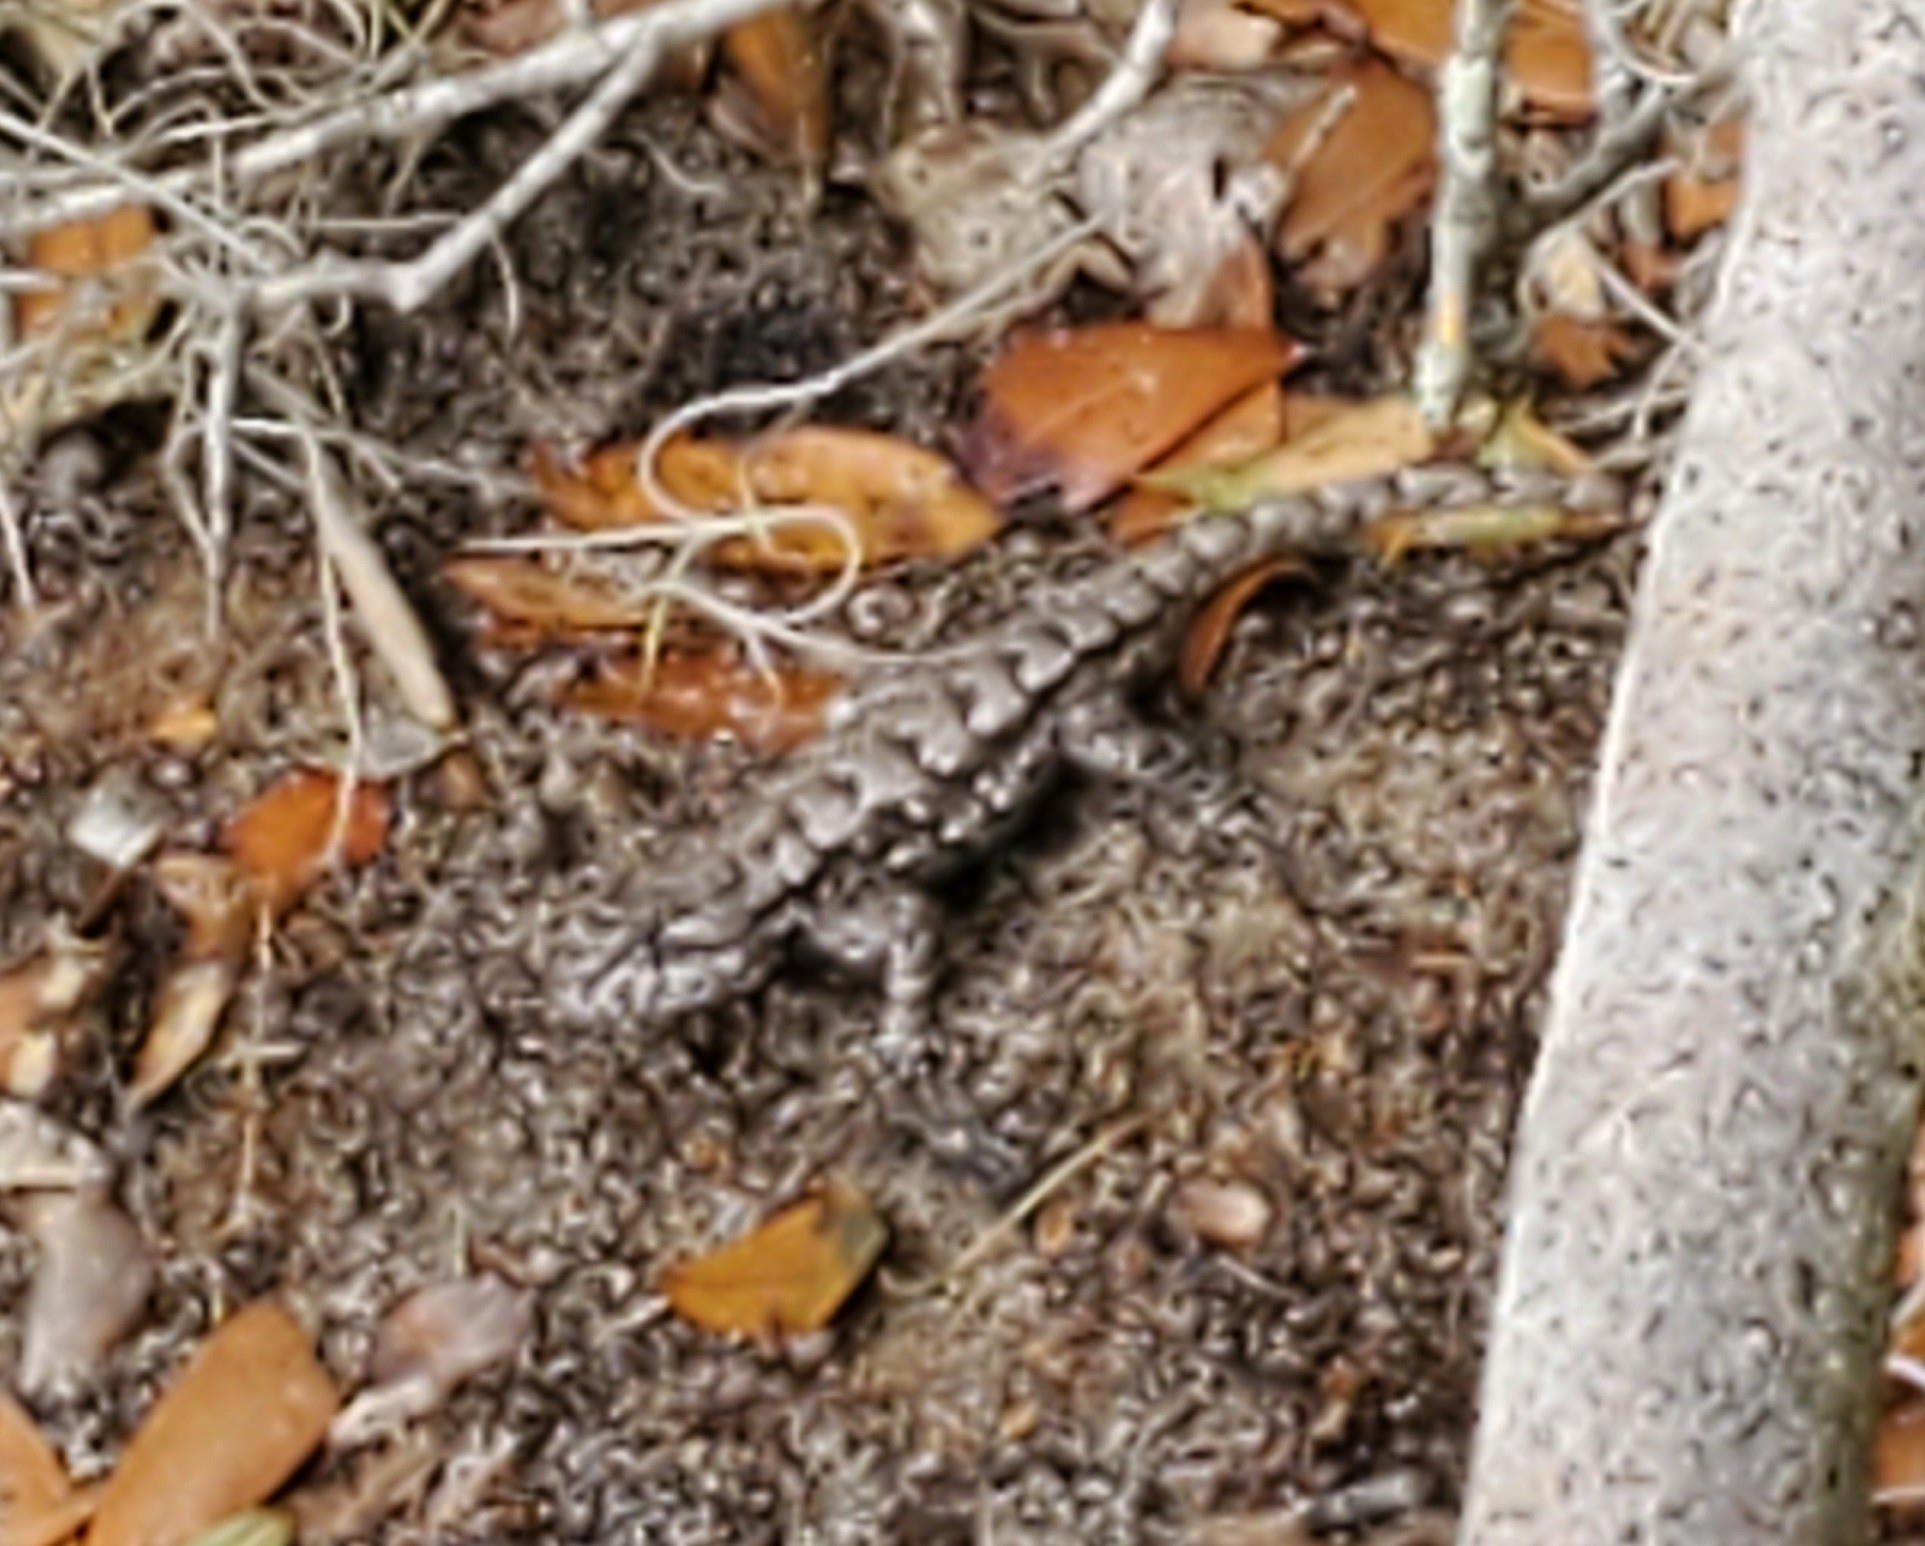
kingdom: Animalia
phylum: Chordata
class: Squamata
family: Phrynosomatidae
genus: Sceloporus
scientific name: Sceloporus undulatus
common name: Eastern fence lizard
